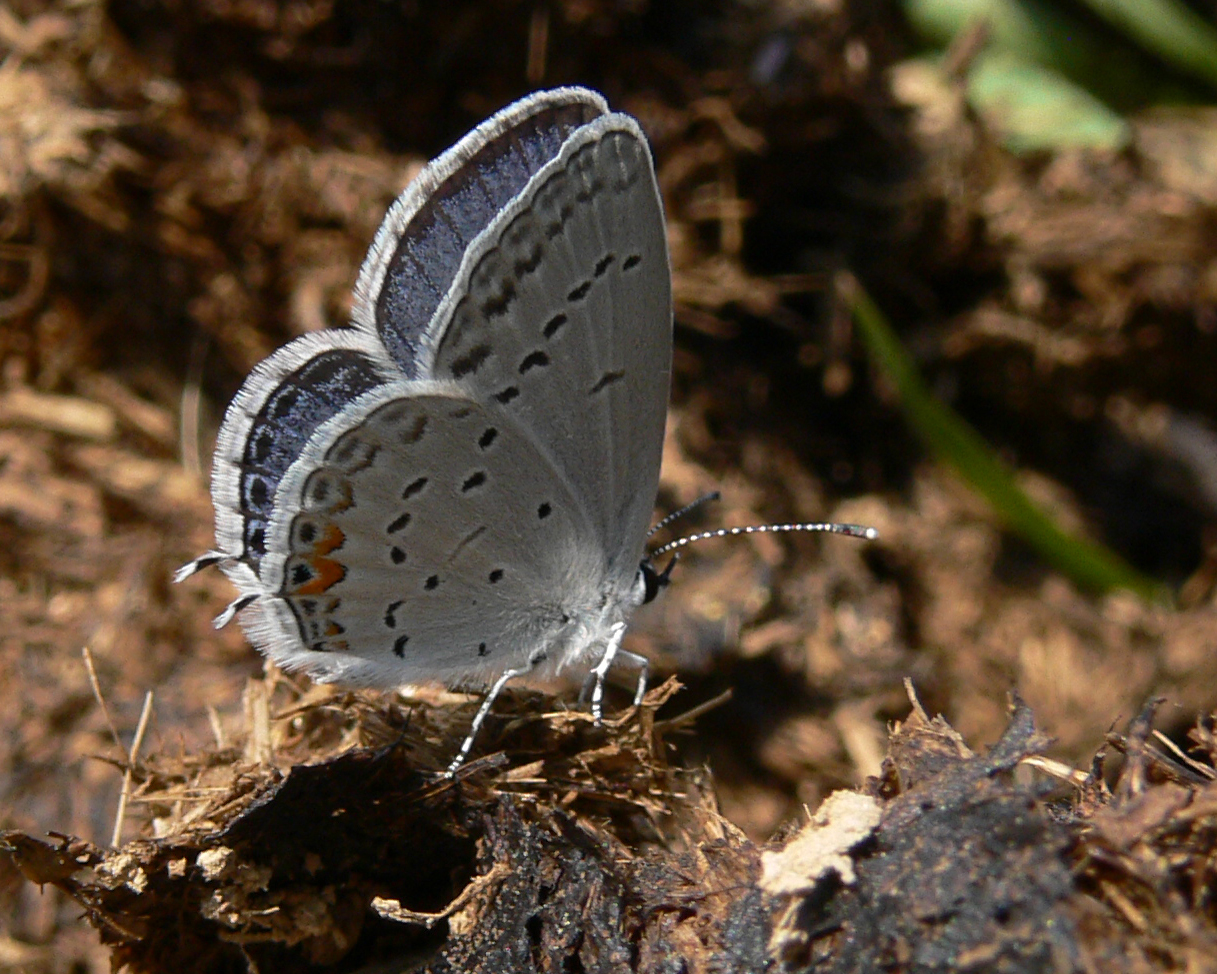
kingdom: Animalia
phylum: Arthropoda
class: Insecta
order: Lepidoptera
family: Lycaenidae
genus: Elkalyce
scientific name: Elkalyce comyntas
